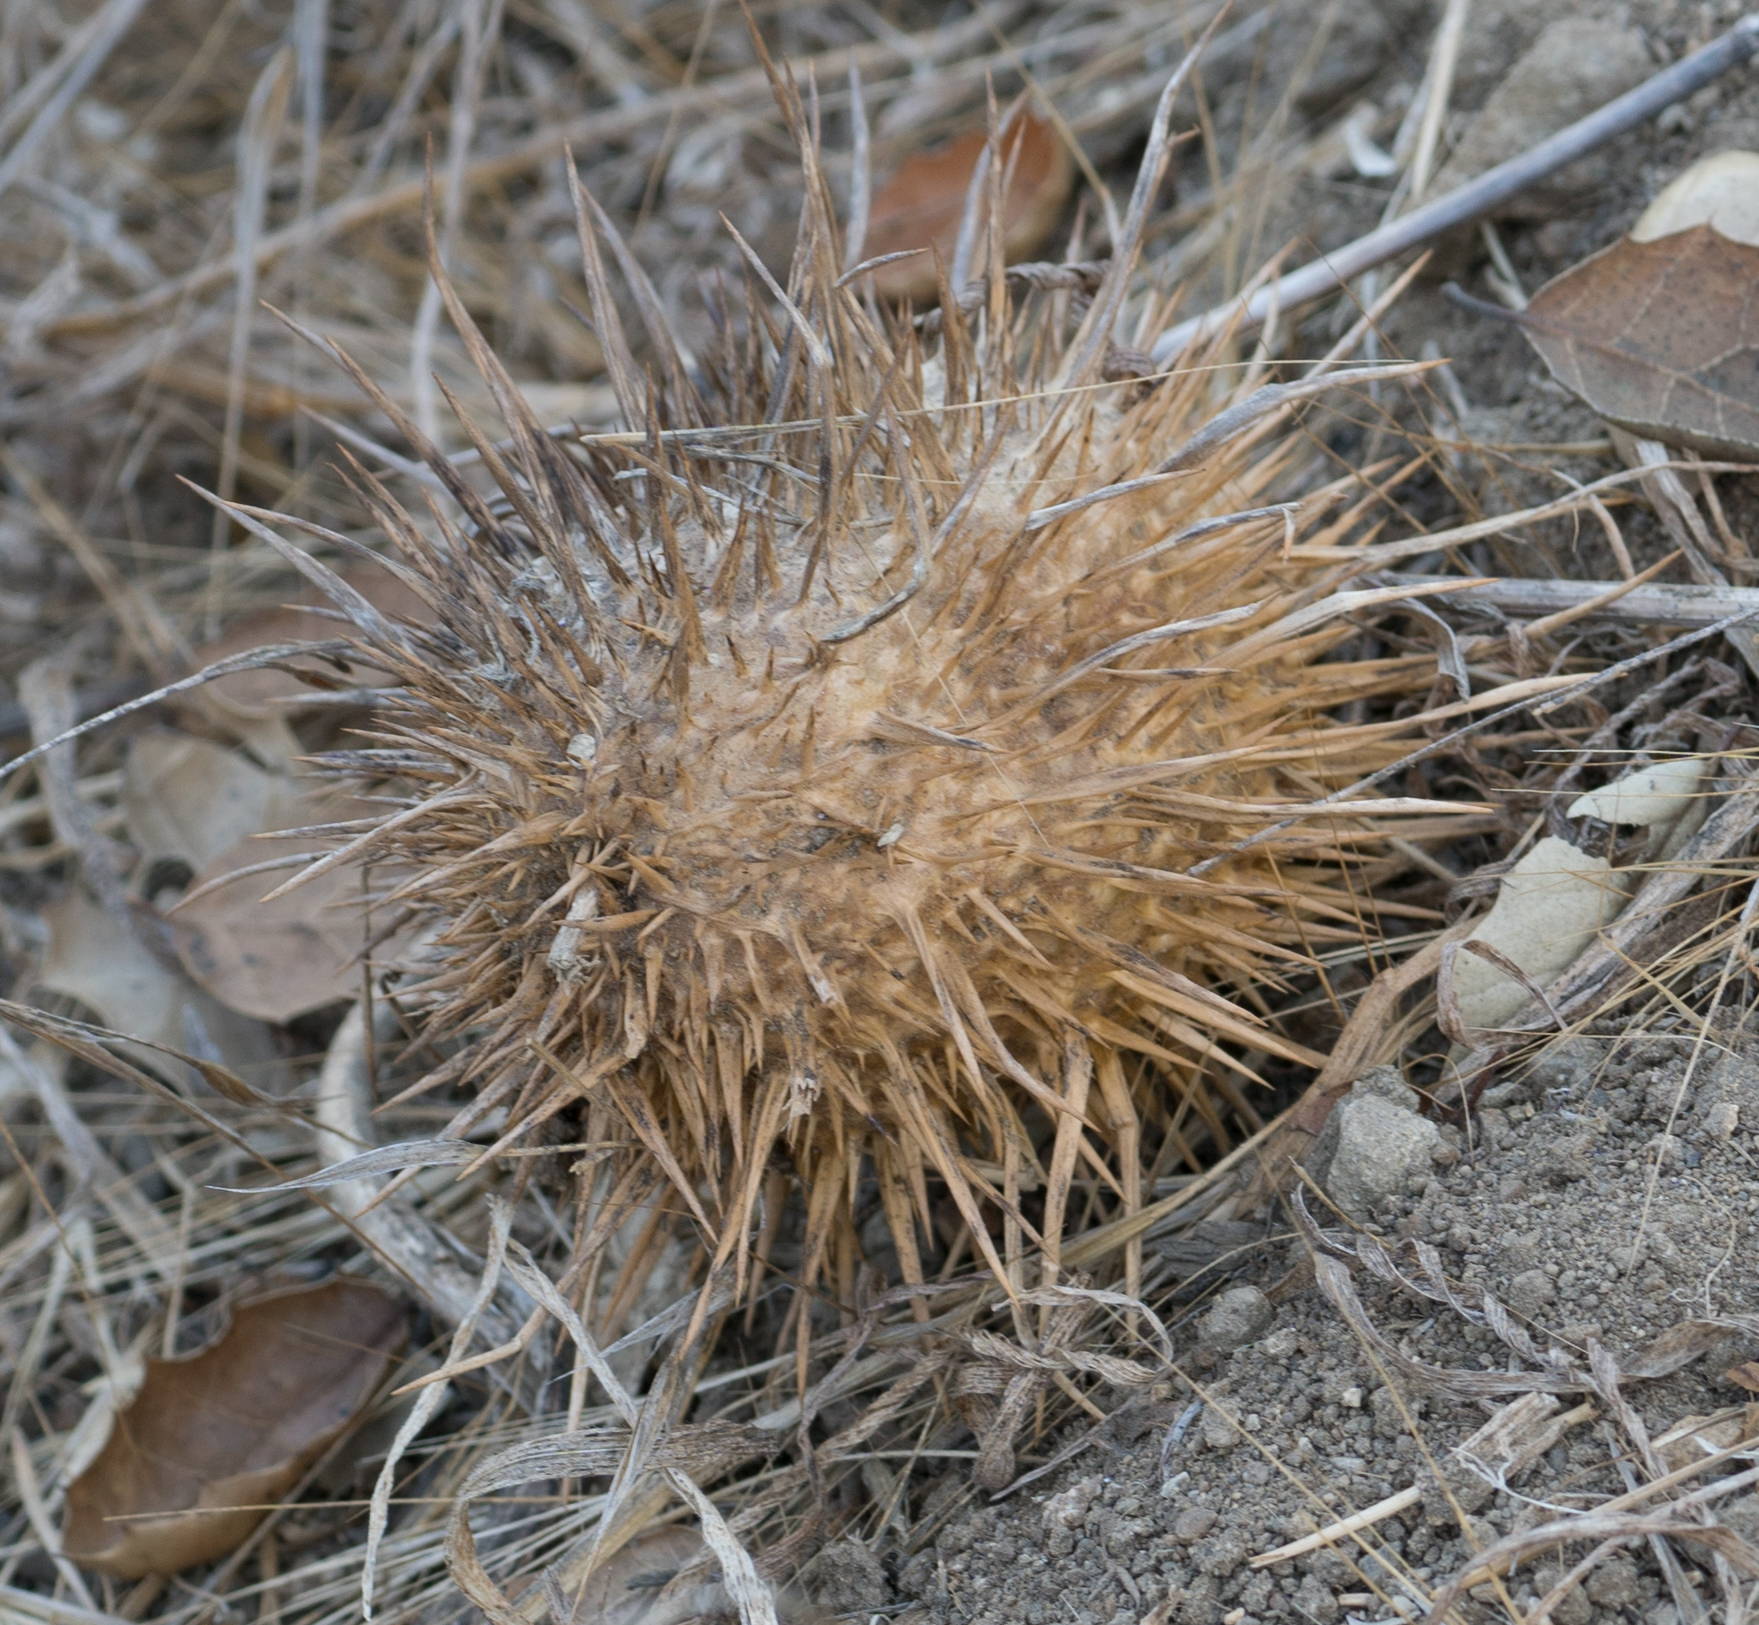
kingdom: Plantae
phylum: Tracheophyta
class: Magnoliopsida
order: Cucurbitales
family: Cucurbitaceae
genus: Marah
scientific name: Marah macrocarpa
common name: Cucamonga manroot
